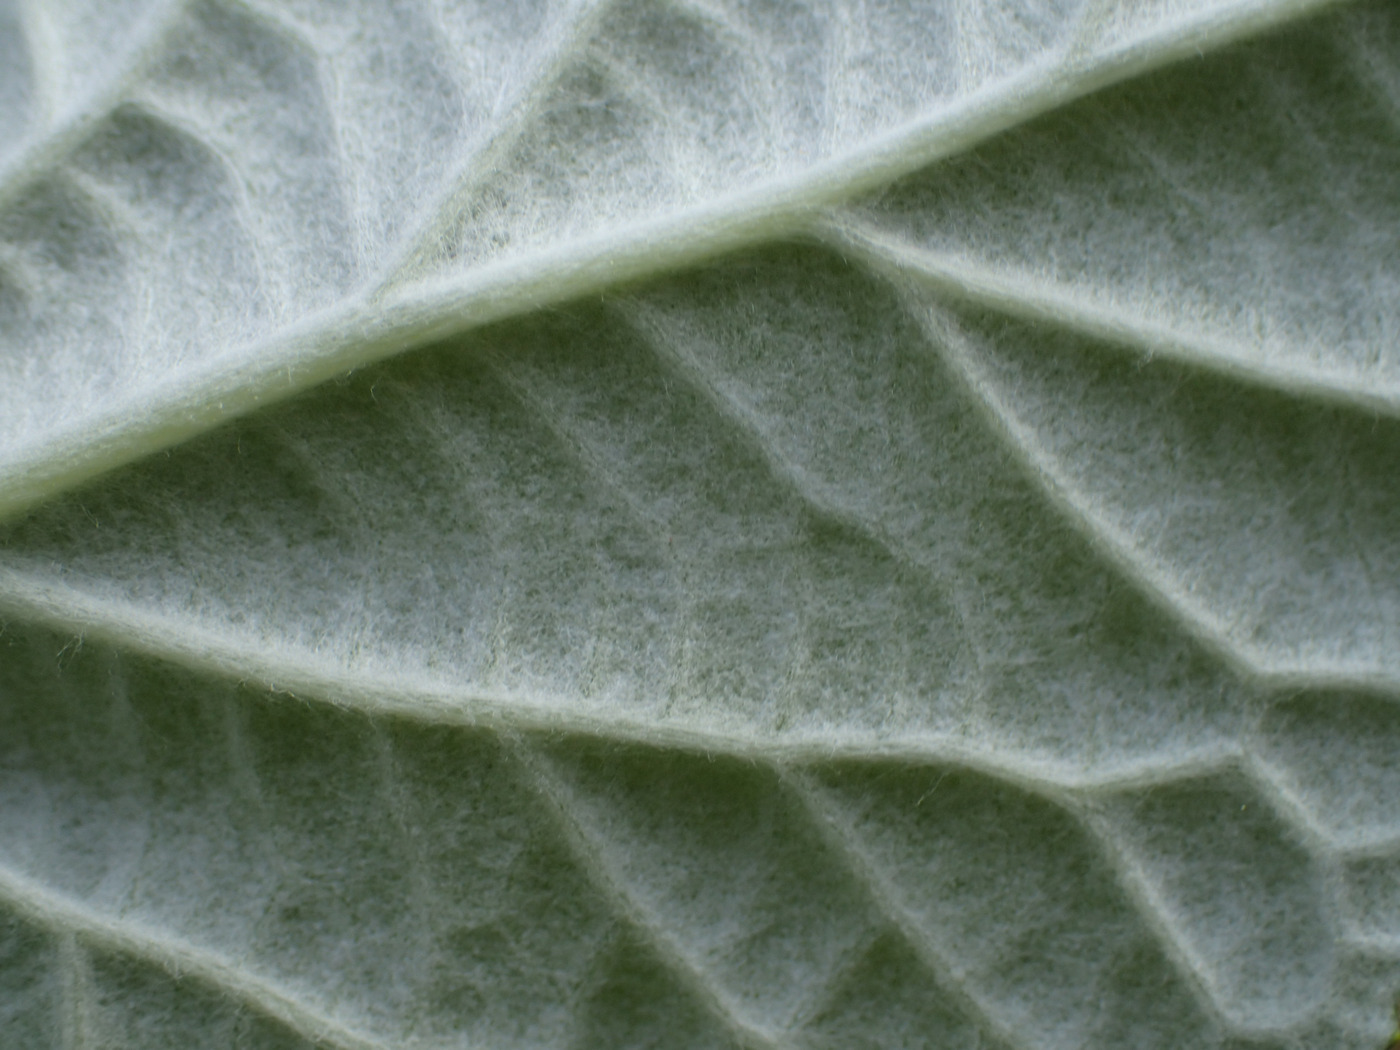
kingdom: Plantae
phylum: Tracheophyta
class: Magnoliopsida
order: Cornales
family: Hydrangeaceae
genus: Hydrangea
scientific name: Hydrangea radiata
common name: Silverleaf hydrangea
